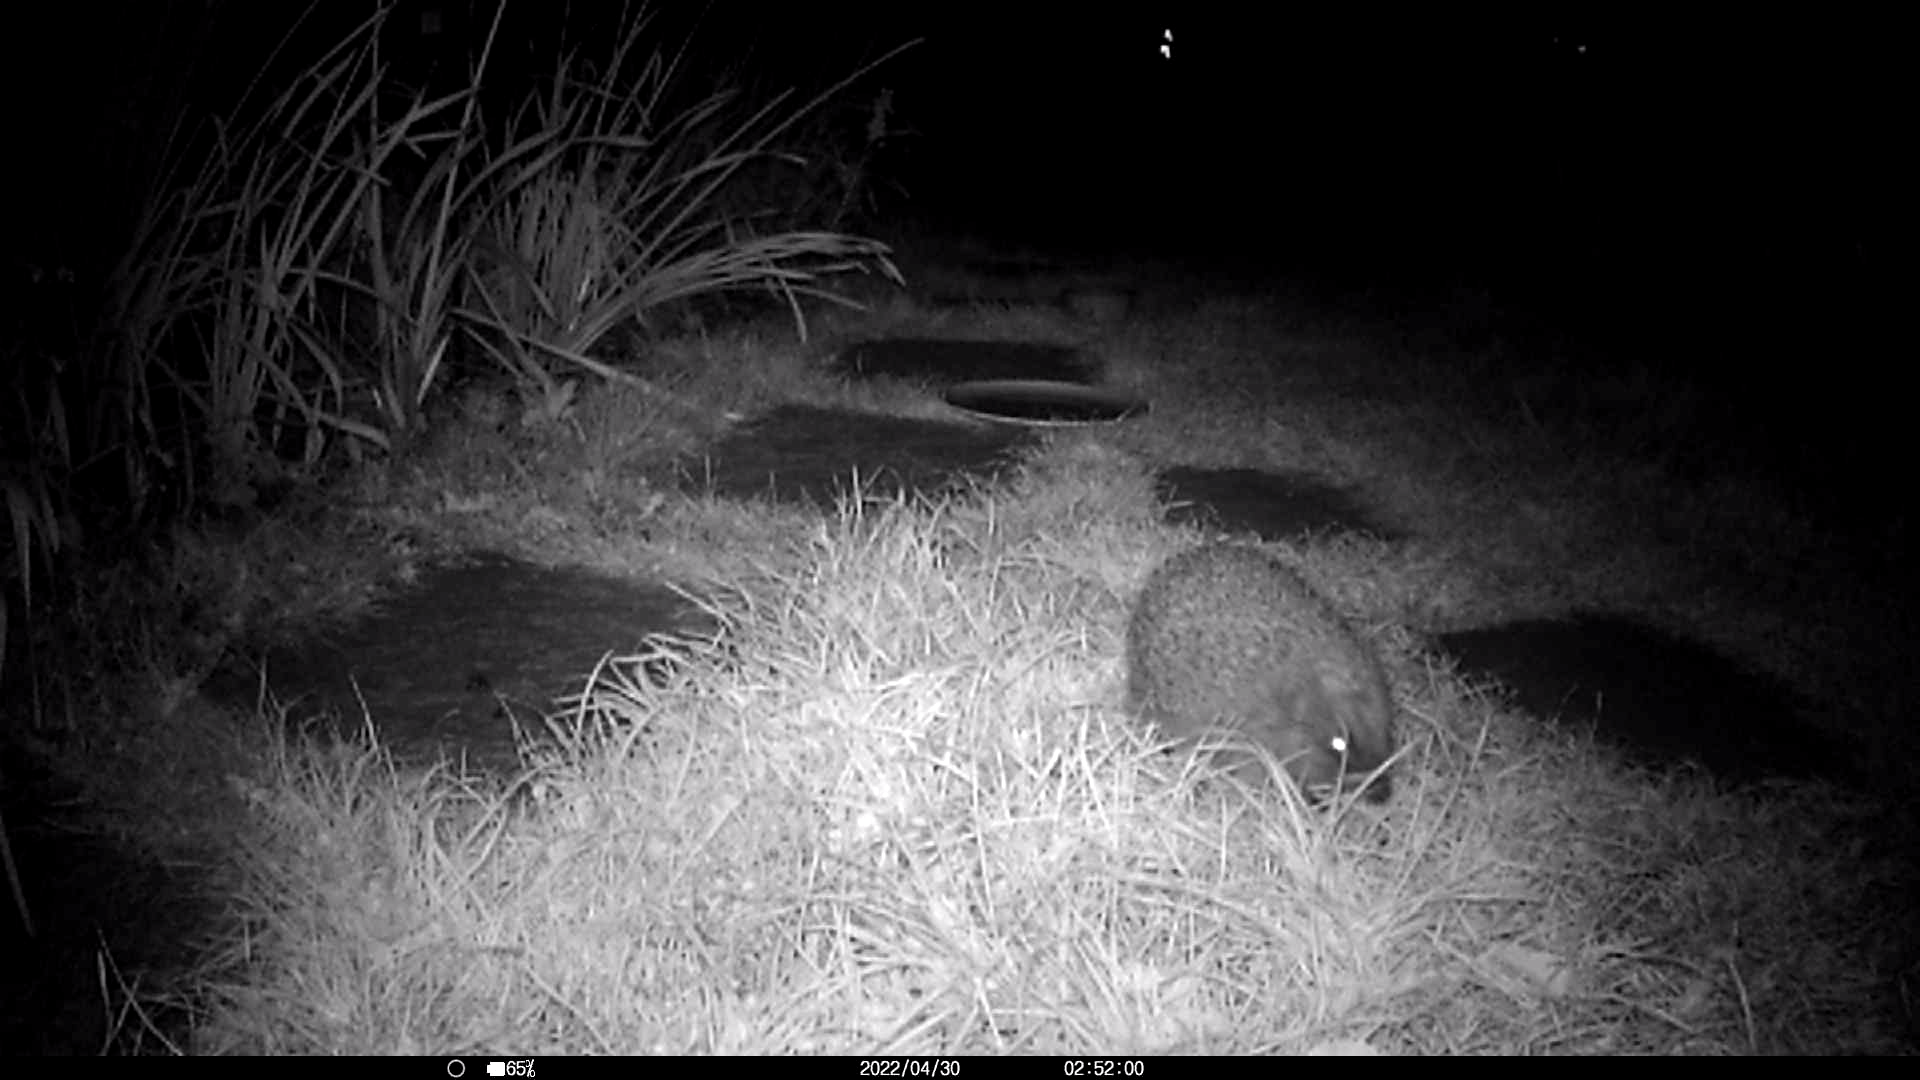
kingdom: Animalia
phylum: Chordata
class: Mammalia
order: Erinaceomorpha
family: Erinaceidae
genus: Erinaceus
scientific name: Erinaceus europaeus
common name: West european hedgehog
